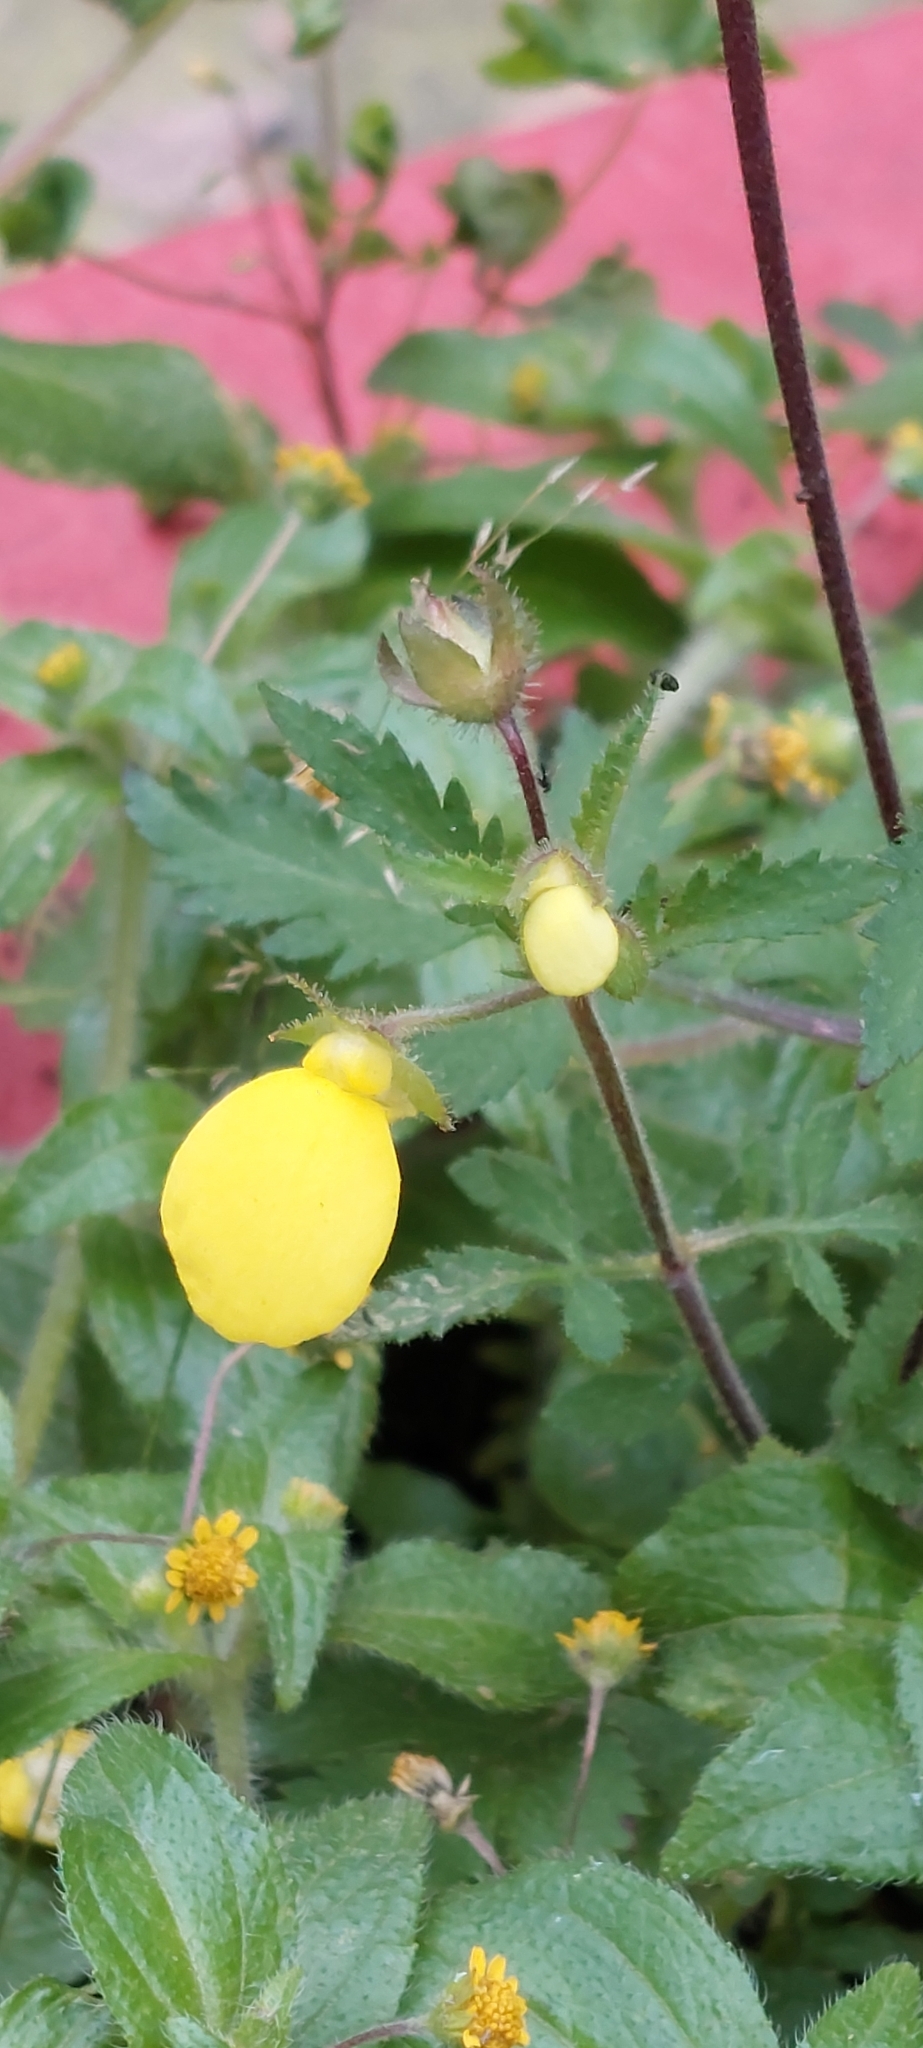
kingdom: Plantae
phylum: Tracheophyta
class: Magnoliopsida
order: Lamiales
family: Calceolariaceae
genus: Calceolaria
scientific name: Calceolaria tripartita
